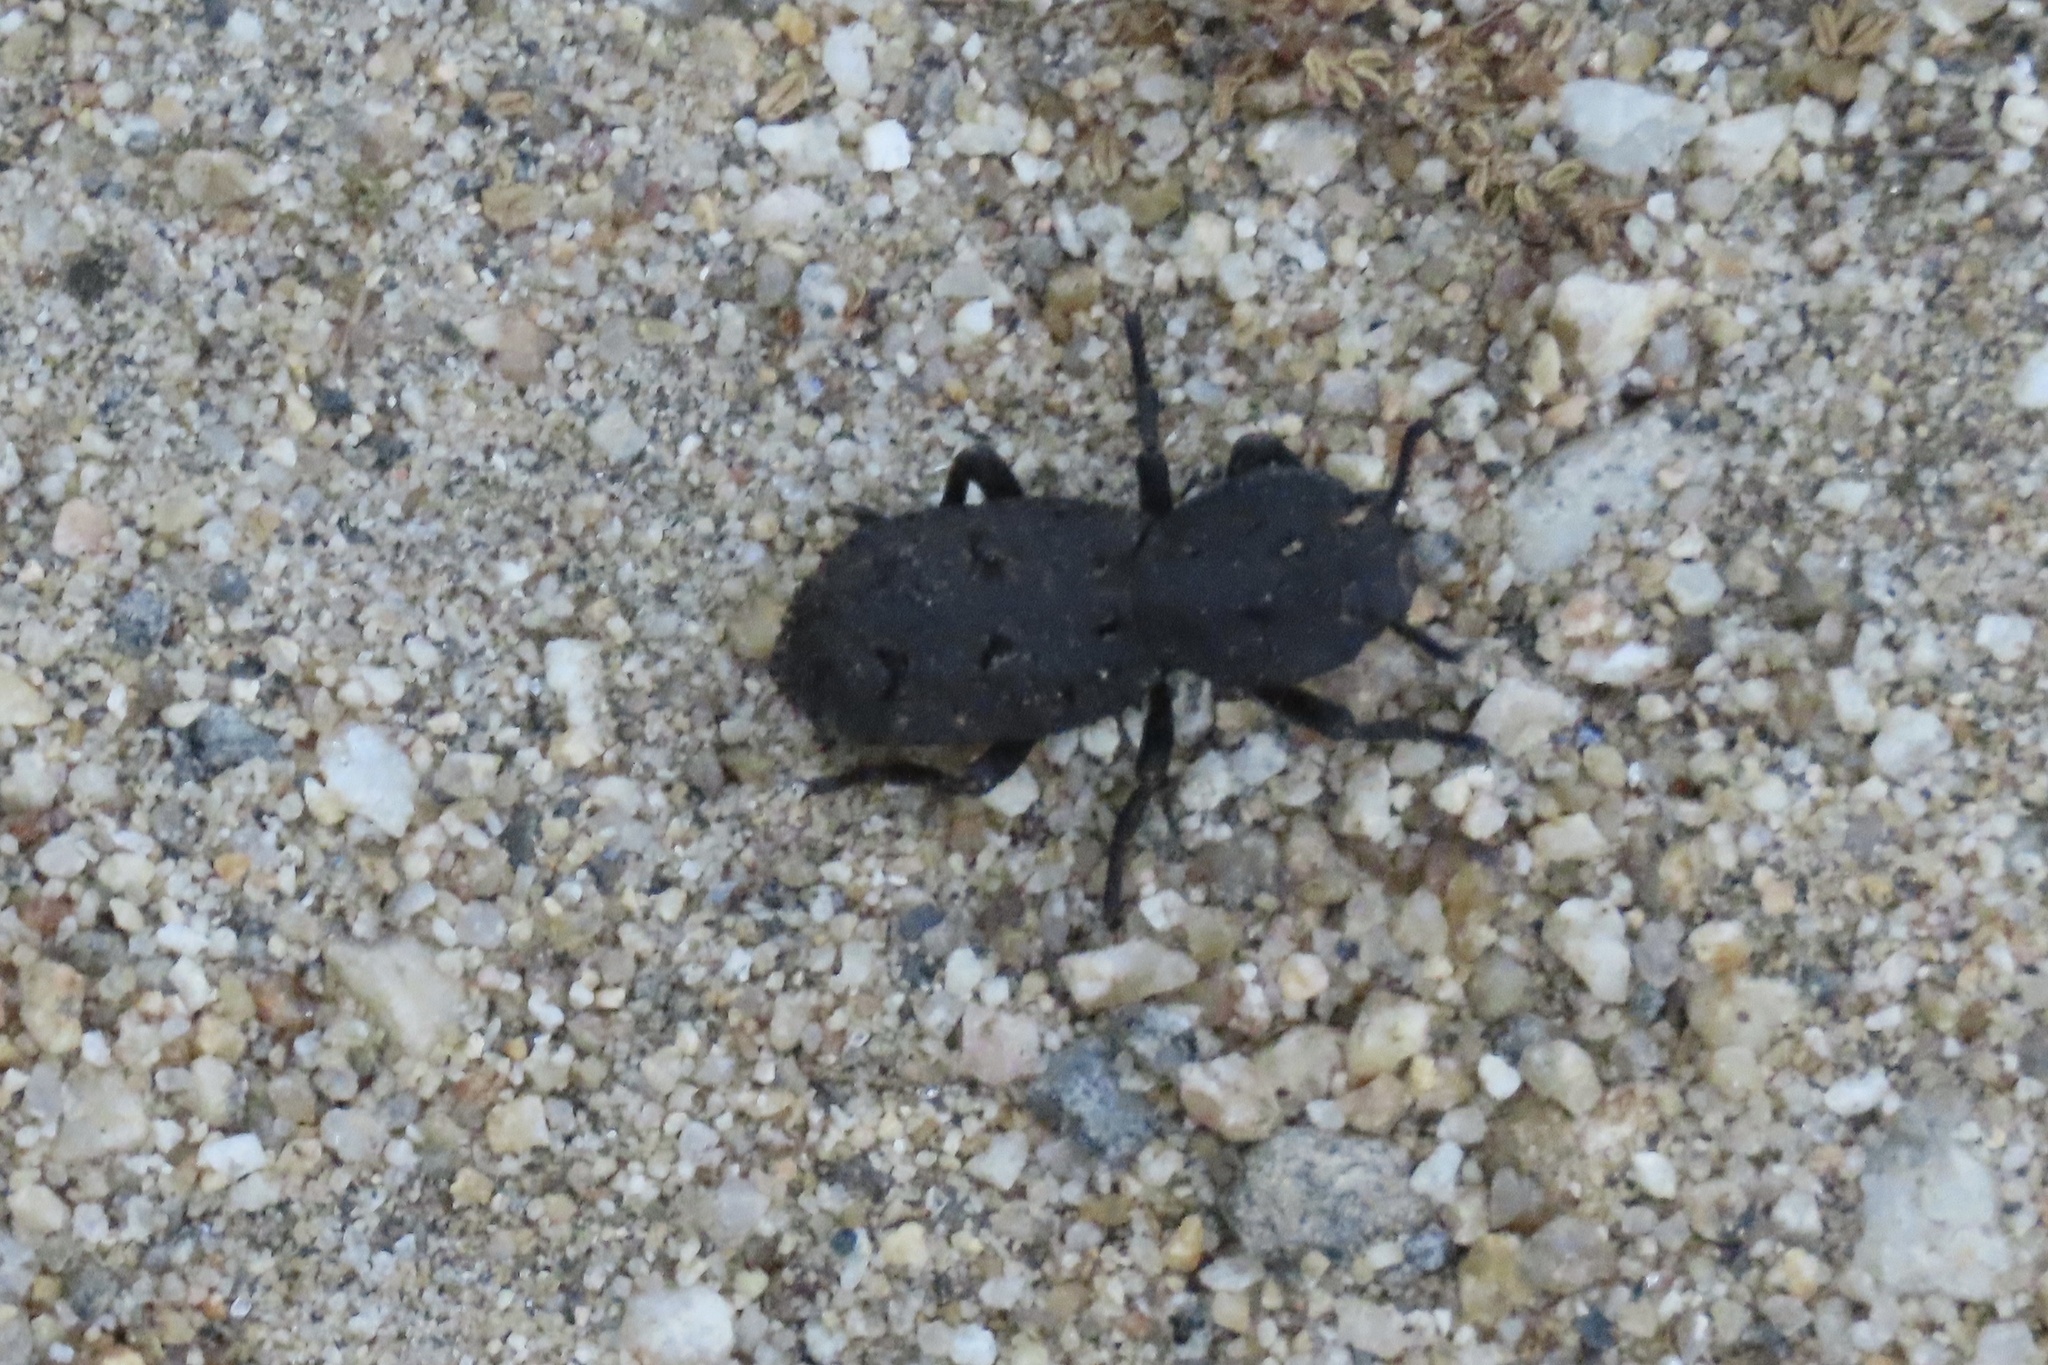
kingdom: Animalia
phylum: Arthropoda
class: Insecta
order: Coleoptera
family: Zopheridae
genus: Phloeodes
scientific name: Phloeodes diabolicus
